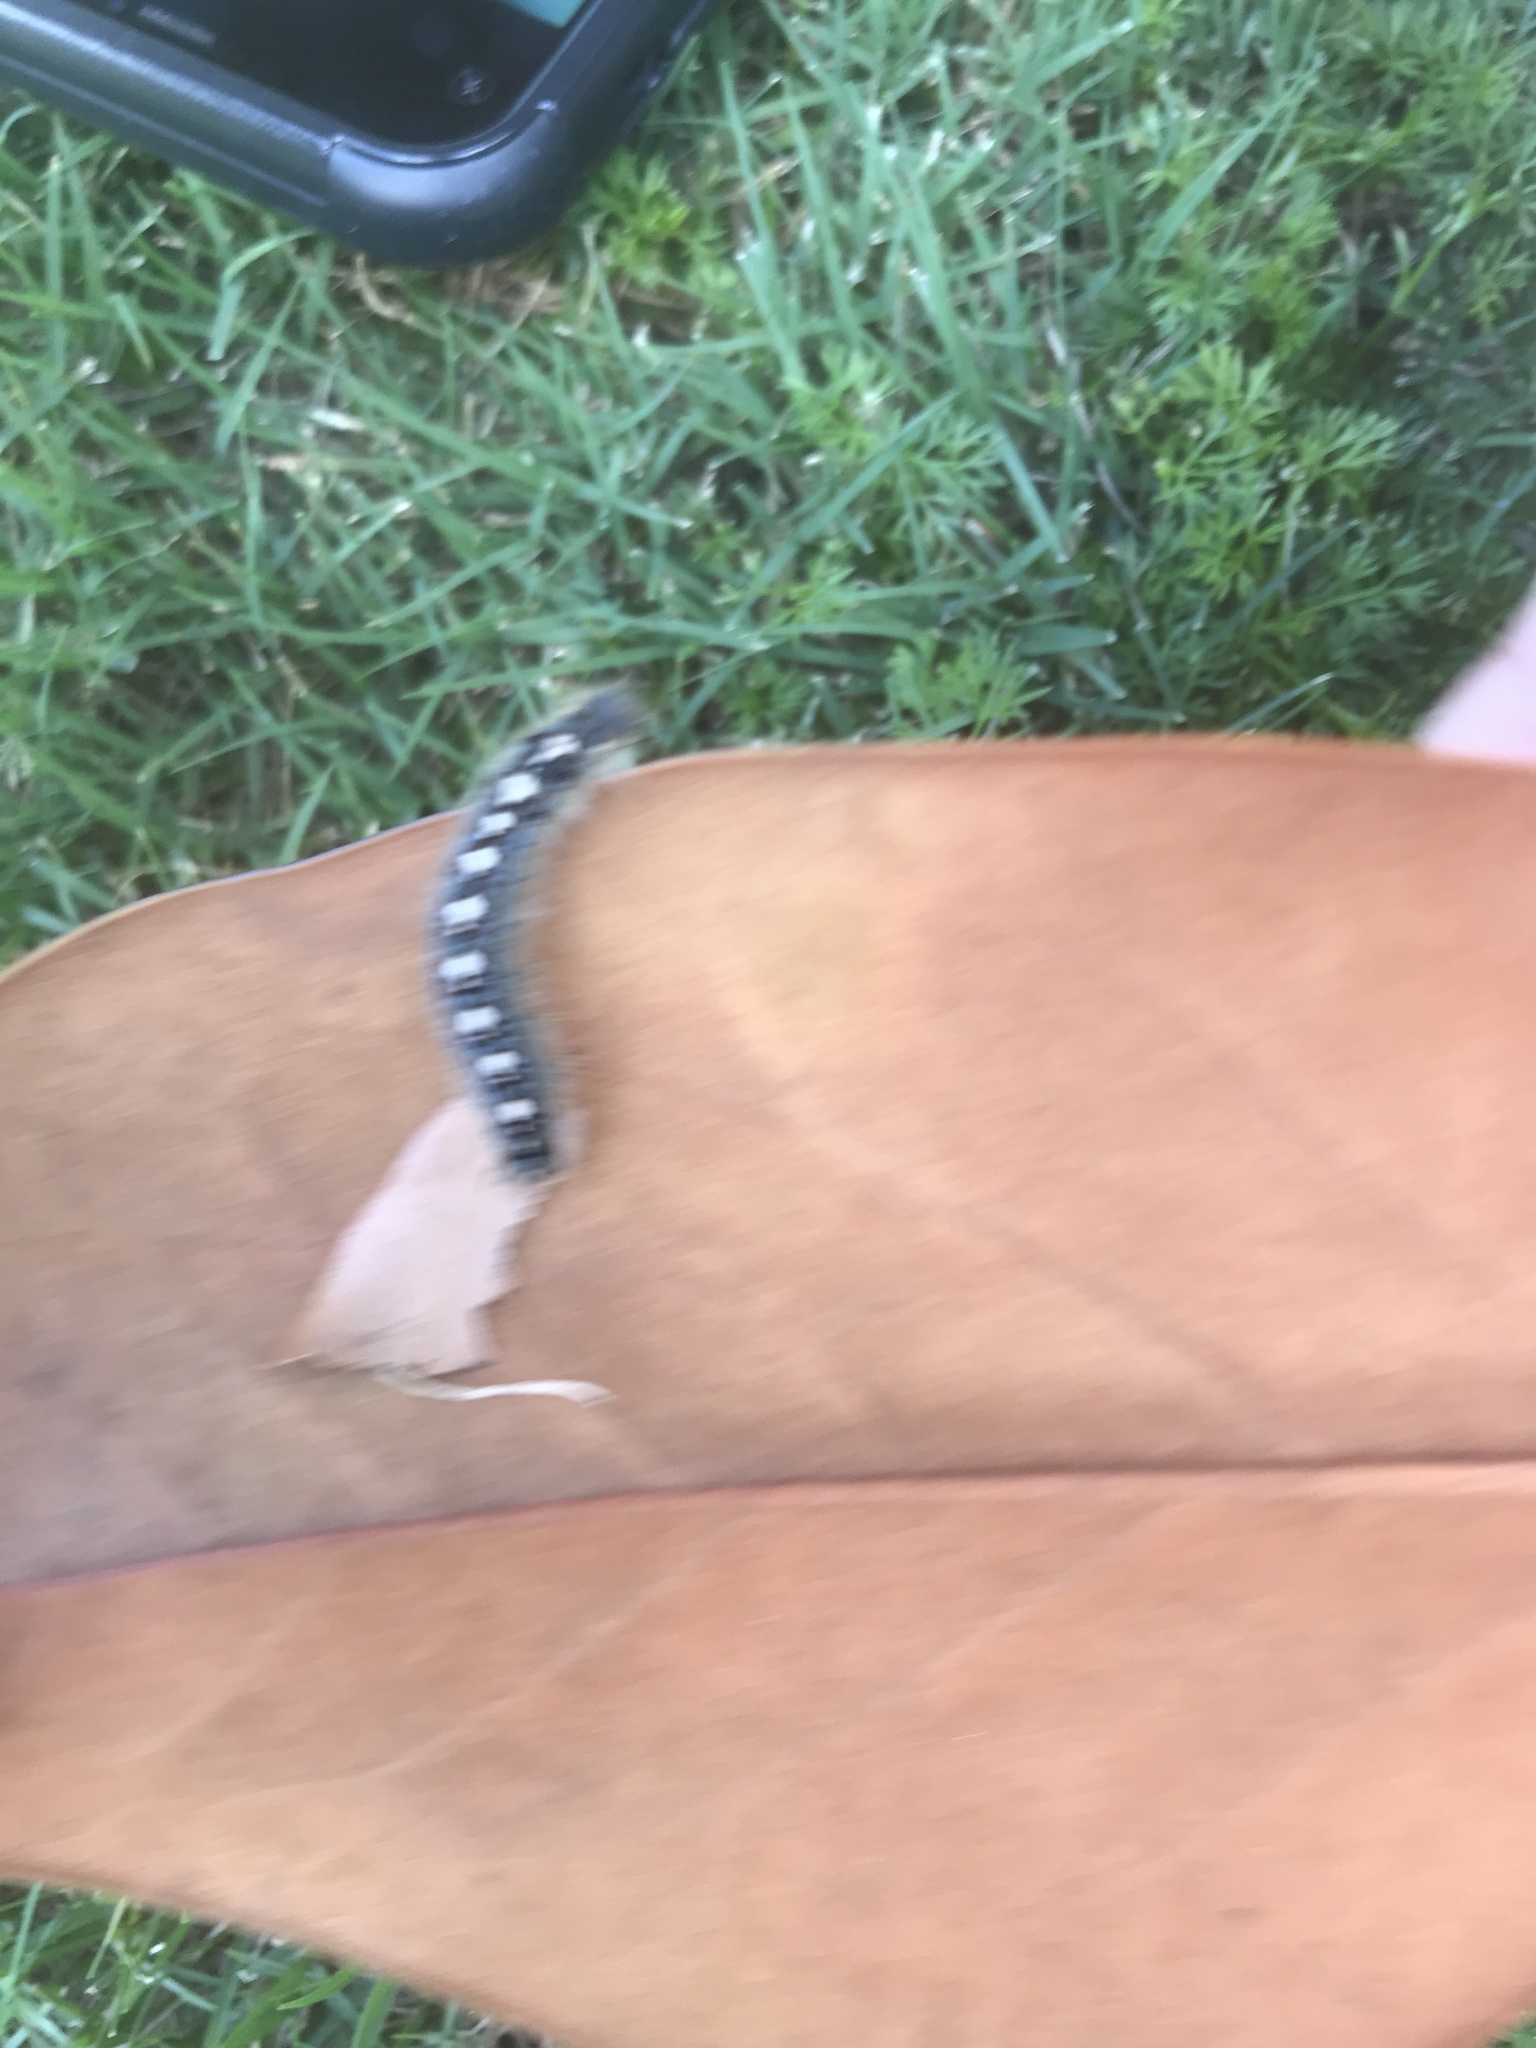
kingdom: Animalia
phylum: Arthropoda
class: Insecta
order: Lepidoptera
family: Lasiocampidae
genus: Malacosoma
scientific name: Malacosoma disstria
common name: Forest tent caterpillar
